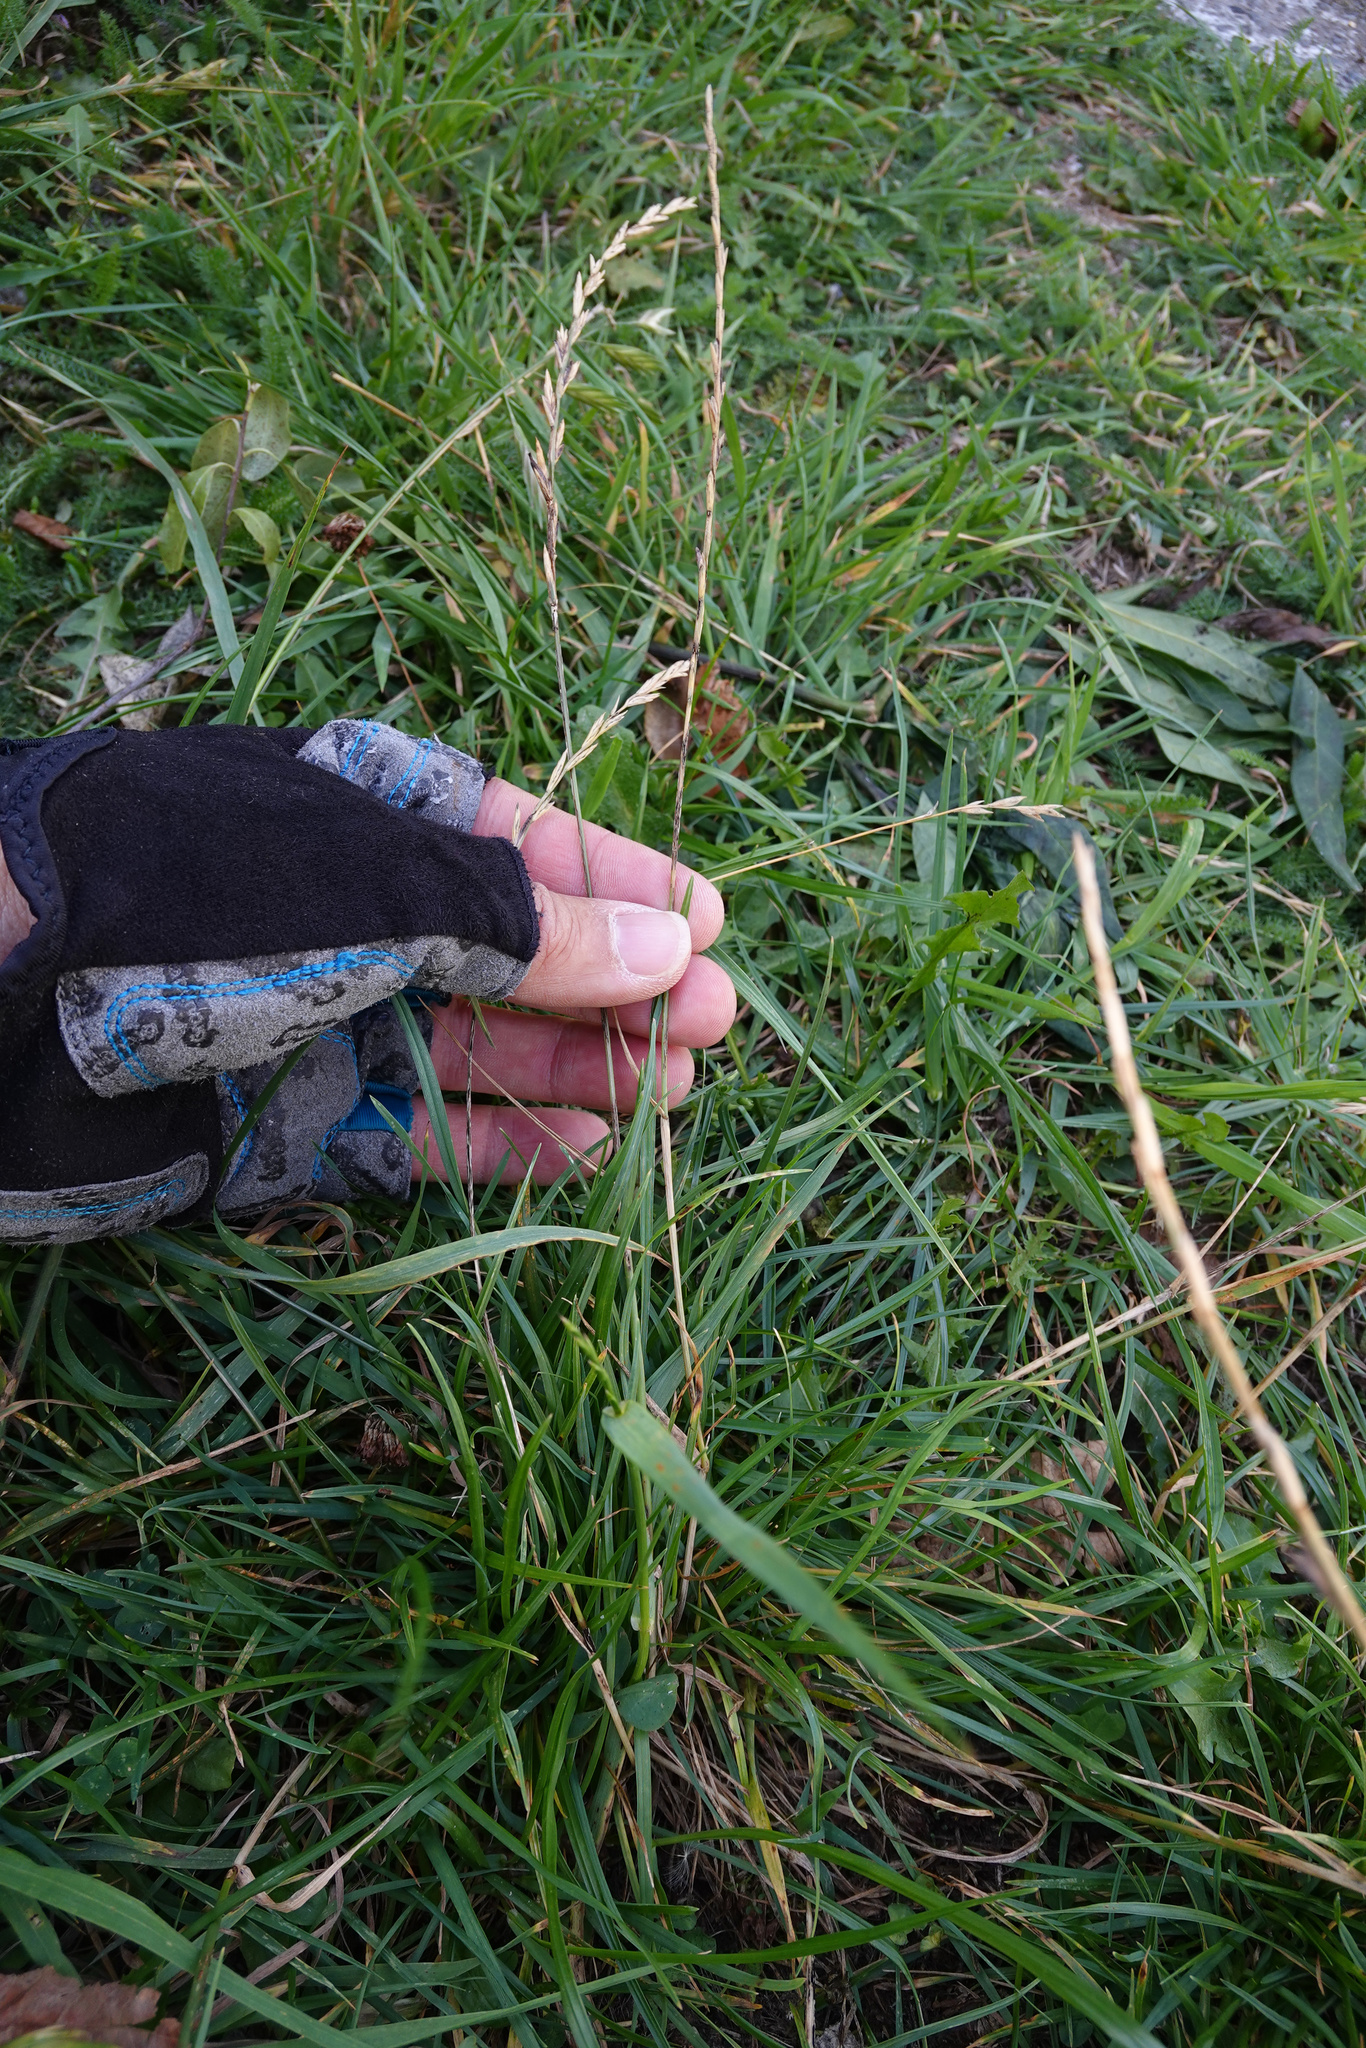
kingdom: Plantae
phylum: Tracheophyta
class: Liliopsida
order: Poales
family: Poaceae
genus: Lolium
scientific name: Lolium perenne
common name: Perennial ryegrass
